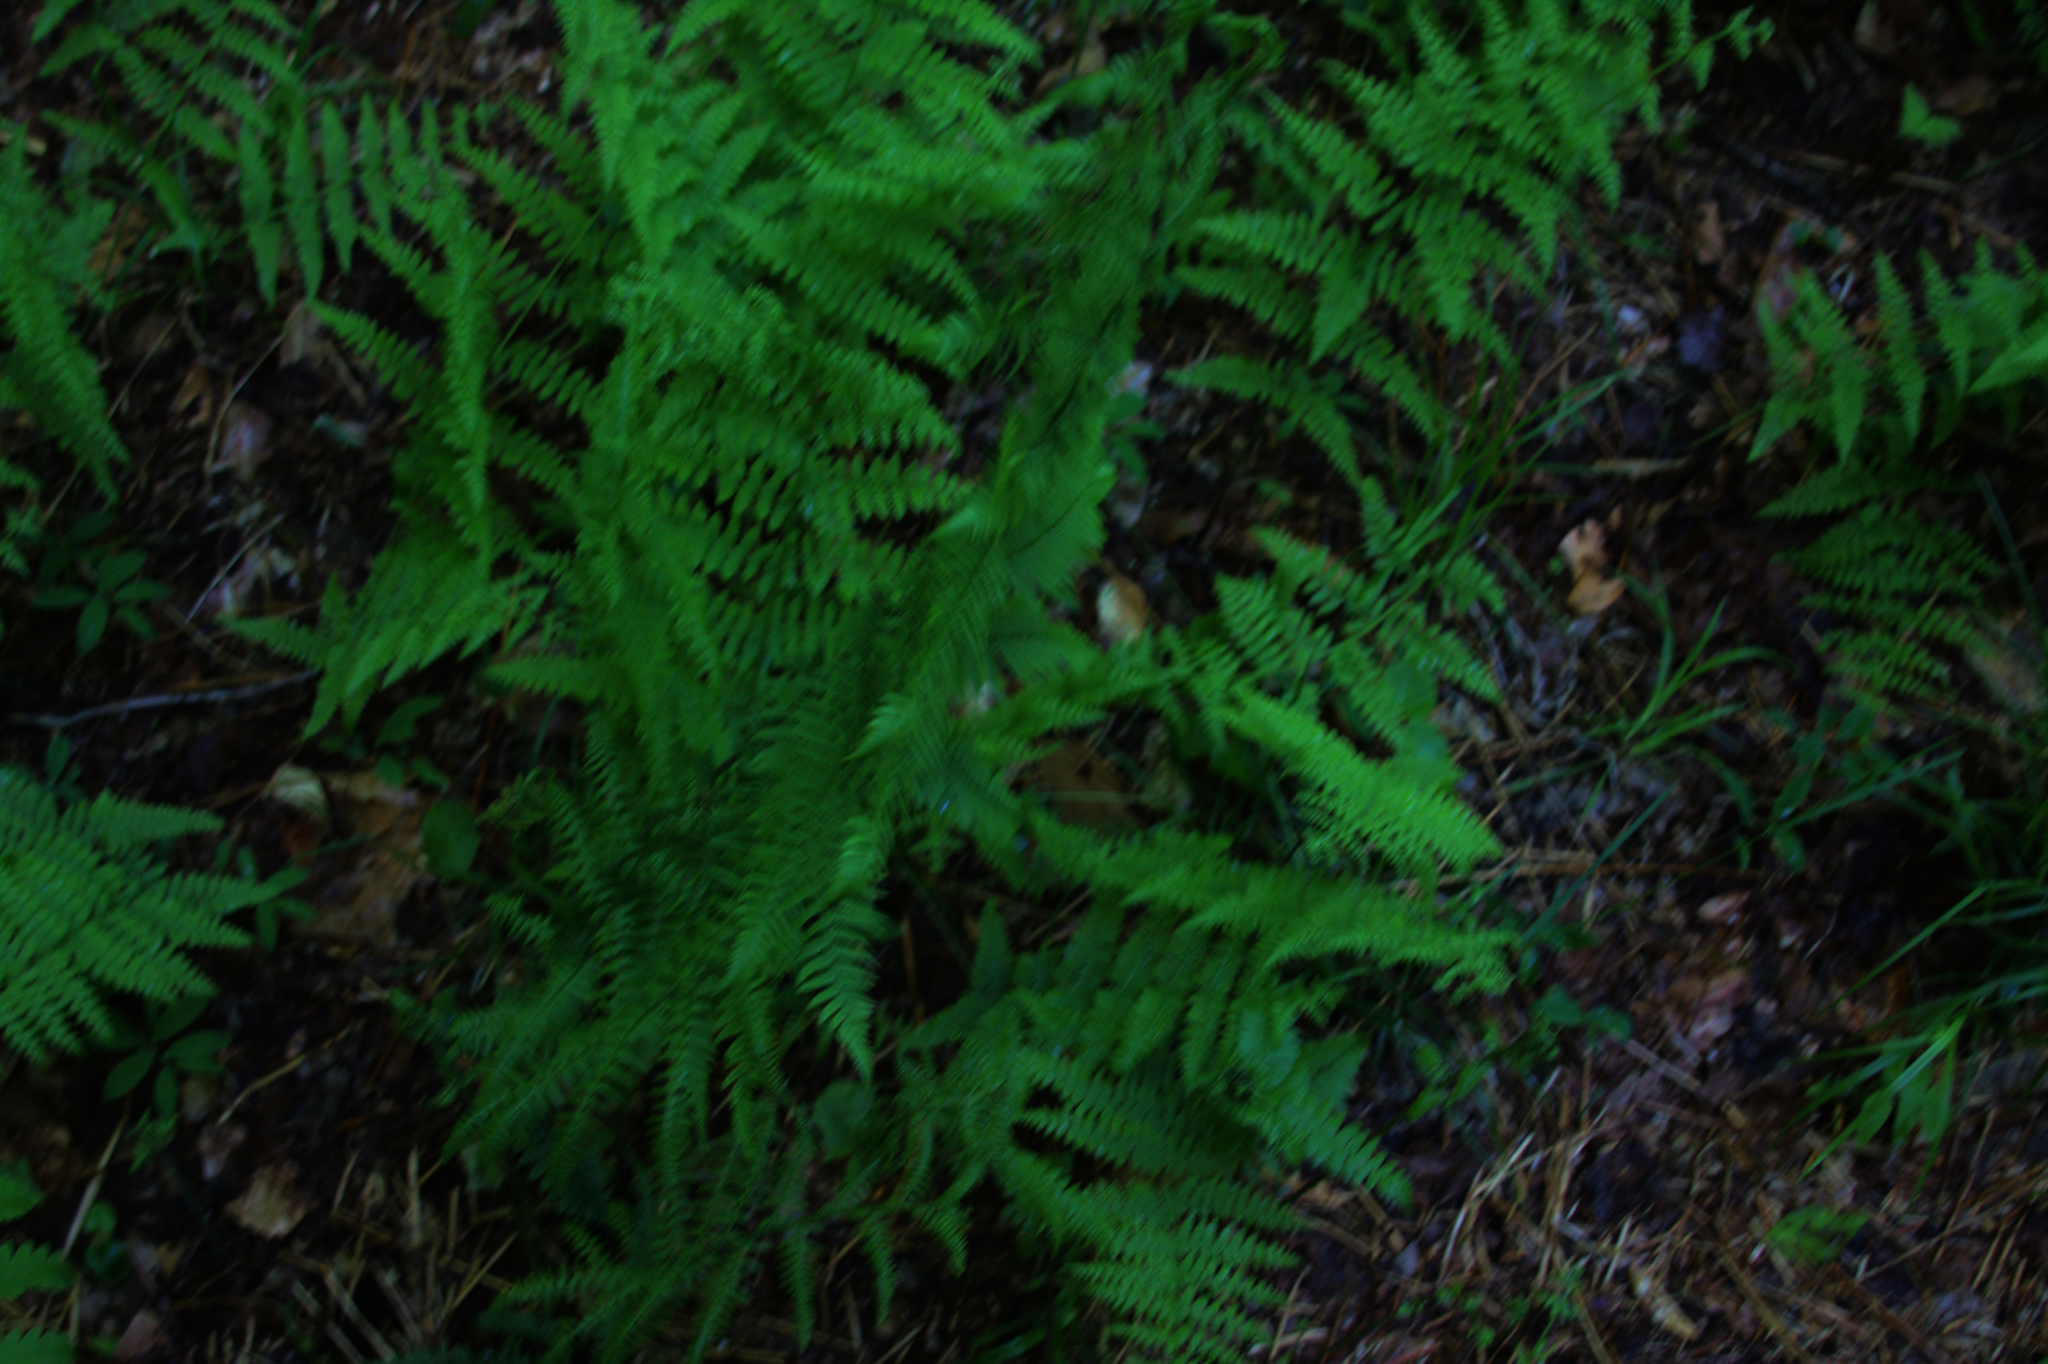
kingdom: Plantae
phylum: Tracheophyta
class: Polypodiopsida
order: Polypodiales
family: Athyriaceae
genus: Athyrium
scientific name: Athyrium angustum
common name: Northern lady fern
